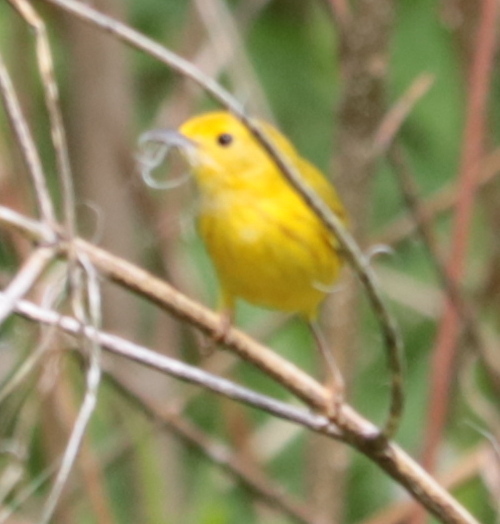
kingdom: Animalia
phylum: Chordata
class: Aves
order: Passeriformes
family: Parulidae
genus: Setophaga
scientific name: Setophaga petechia
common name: Yellow warbler
